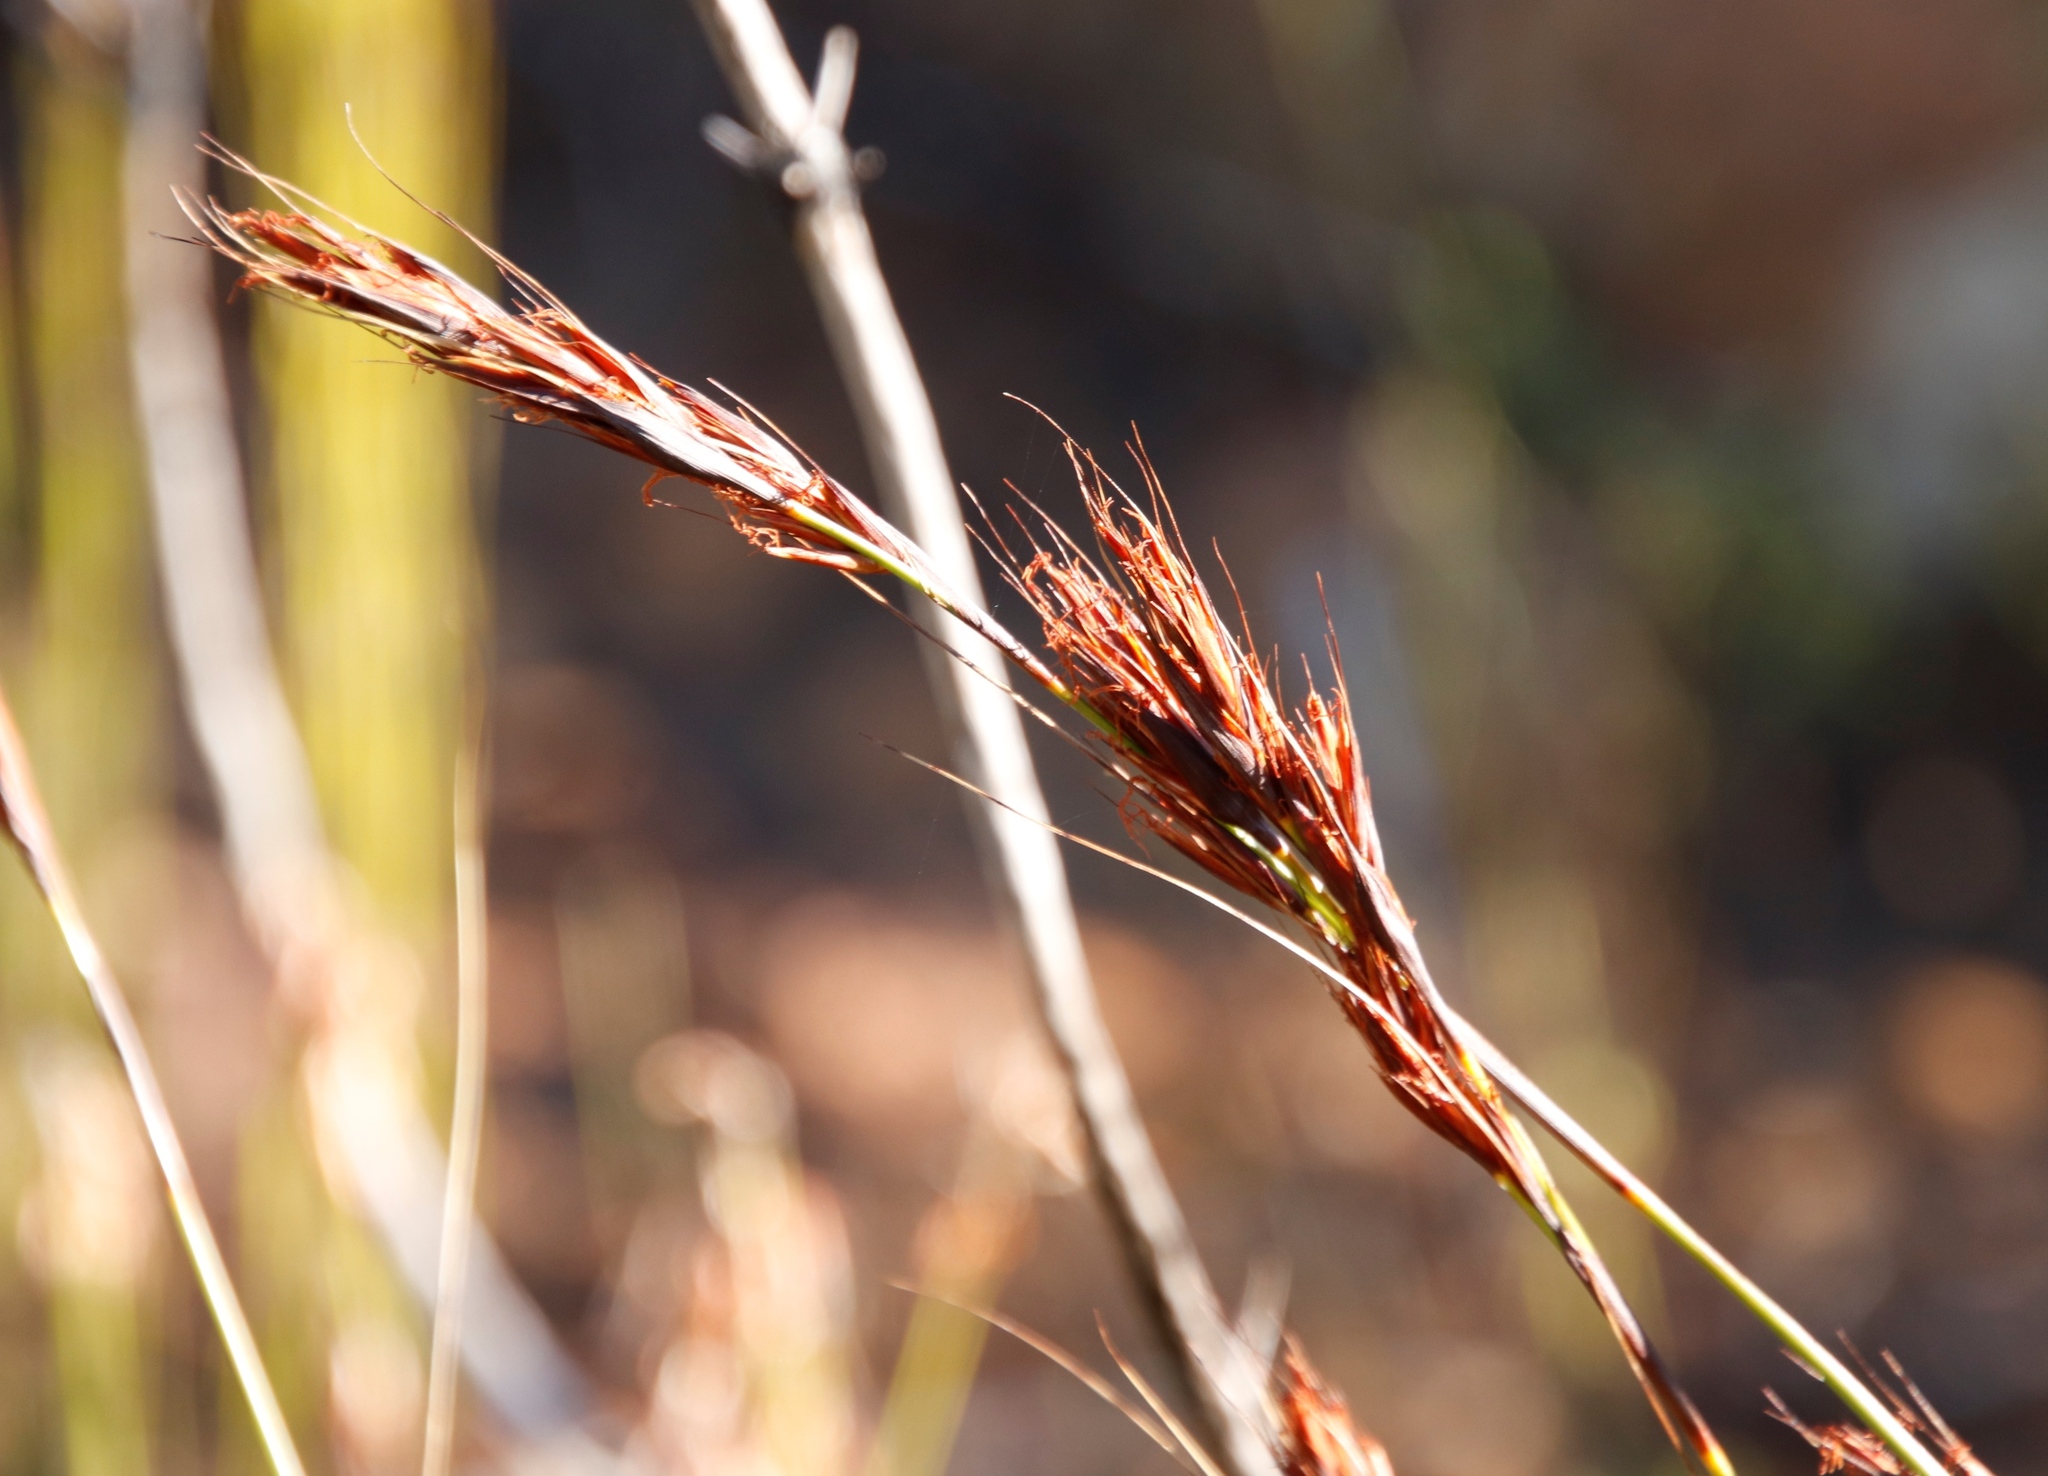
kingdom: Plantae
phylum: Tracheophyta
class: Liliopsida
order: Poales
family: Cyperaceae
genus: Tetraria
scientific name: Tetraria ustulata
